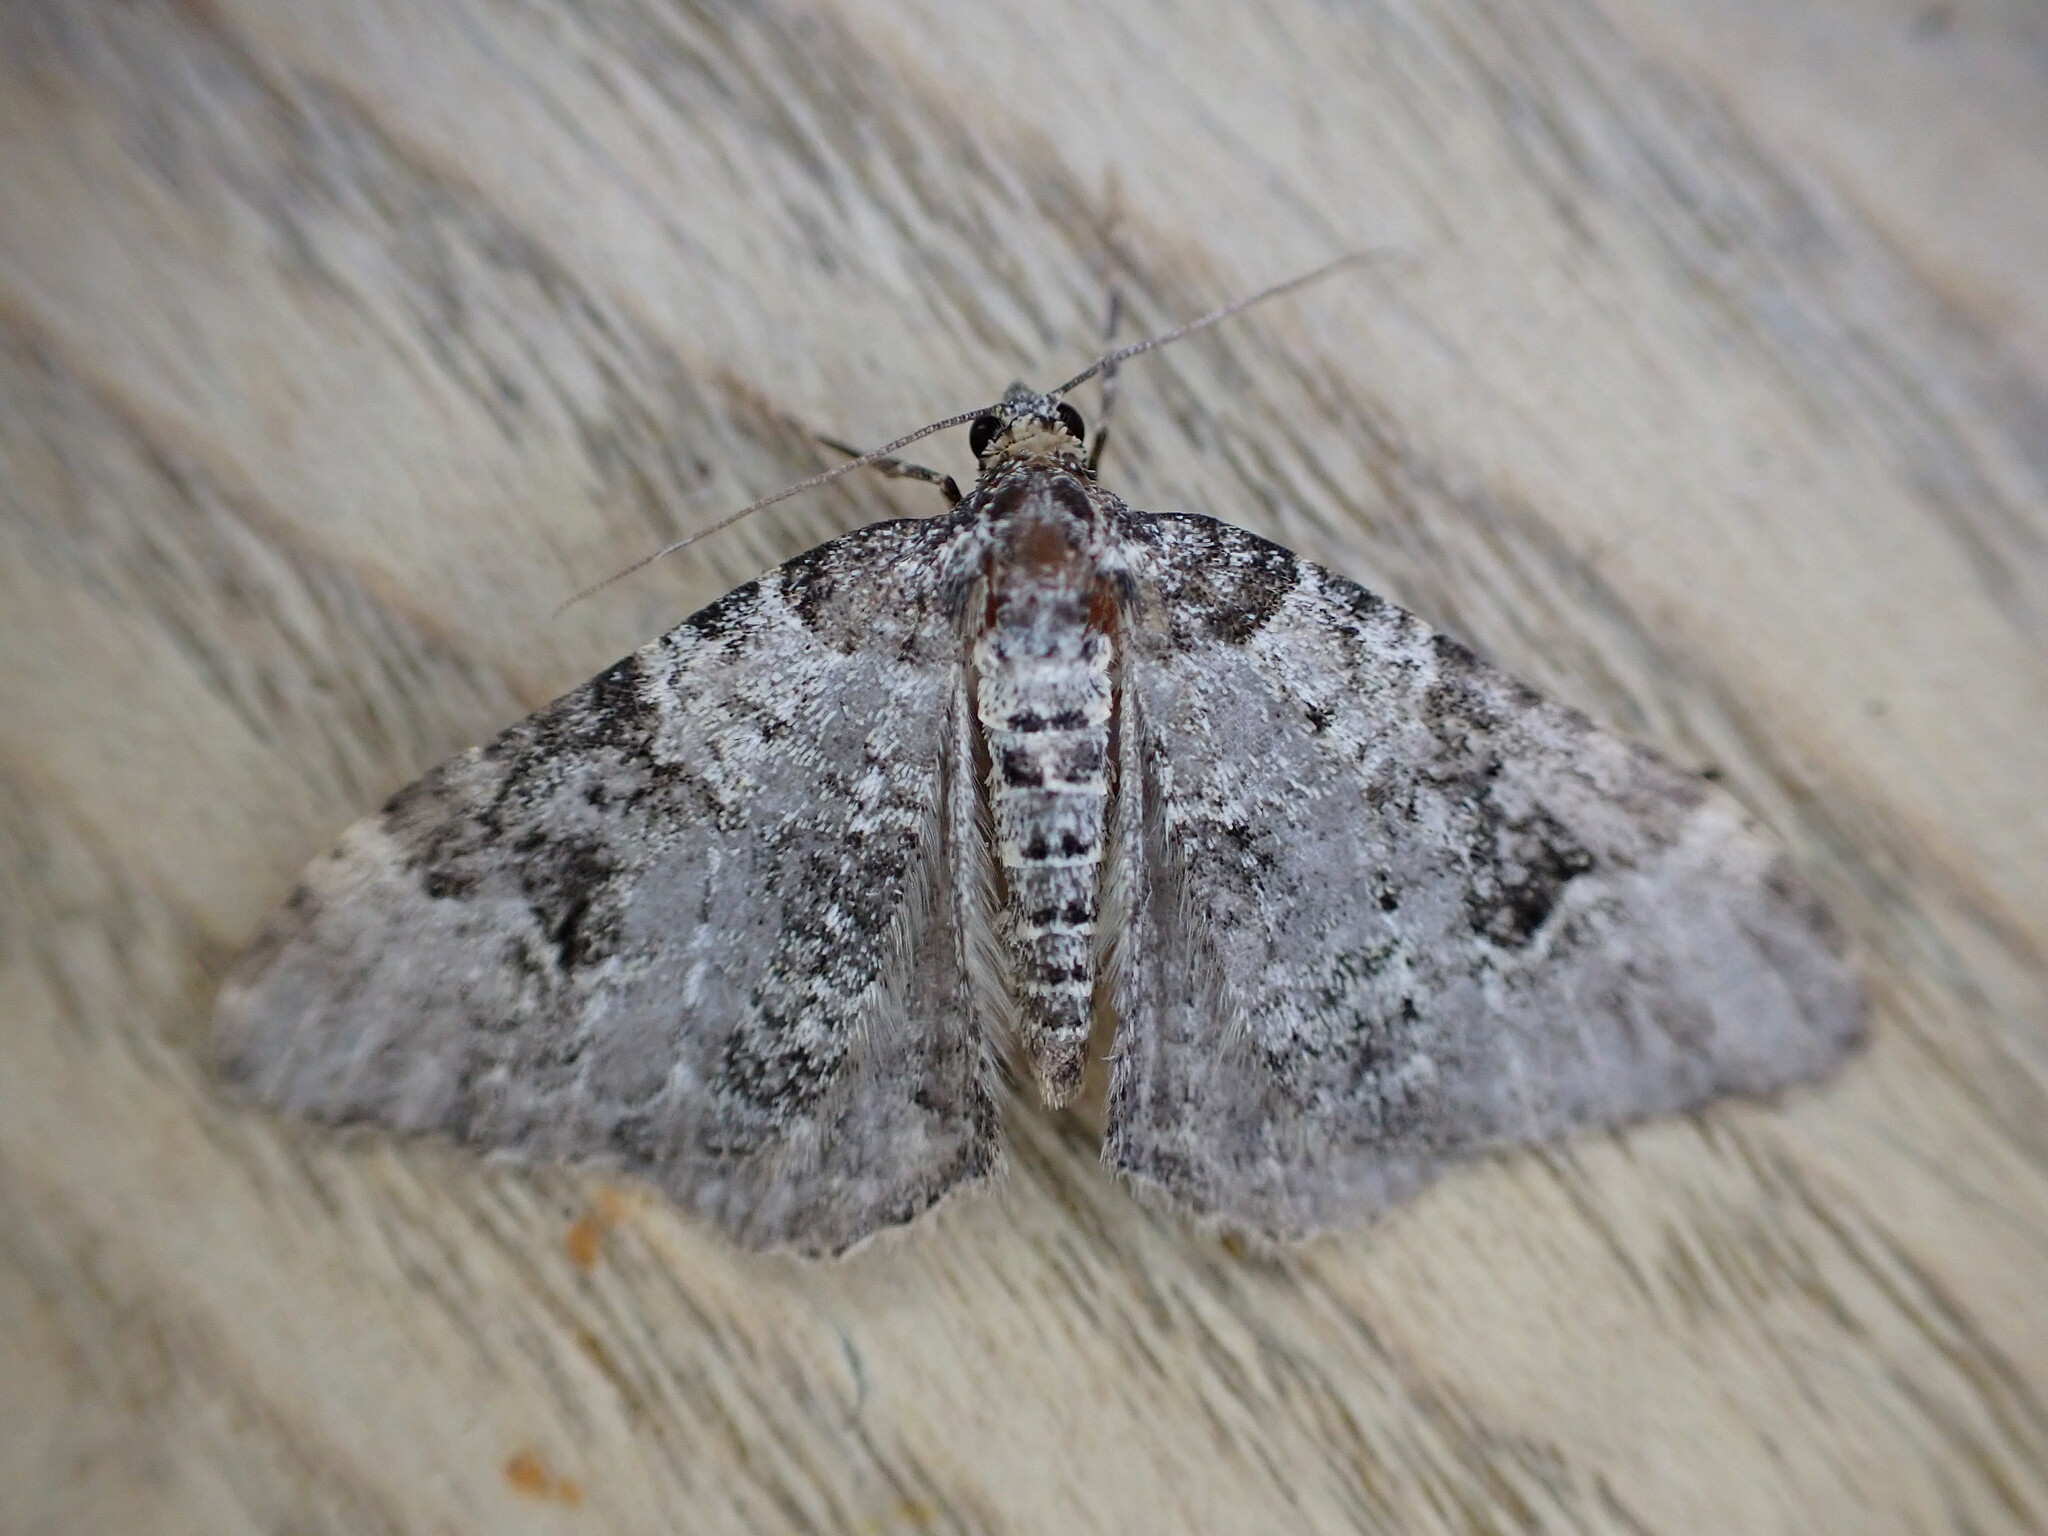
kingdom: Animalia
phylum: Arthropoda
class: Insecta
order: Lepidoptera
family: Geometridae
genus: Xanthorhoe
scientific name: Xanthorhoe fluctuata
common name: Garden carpet
